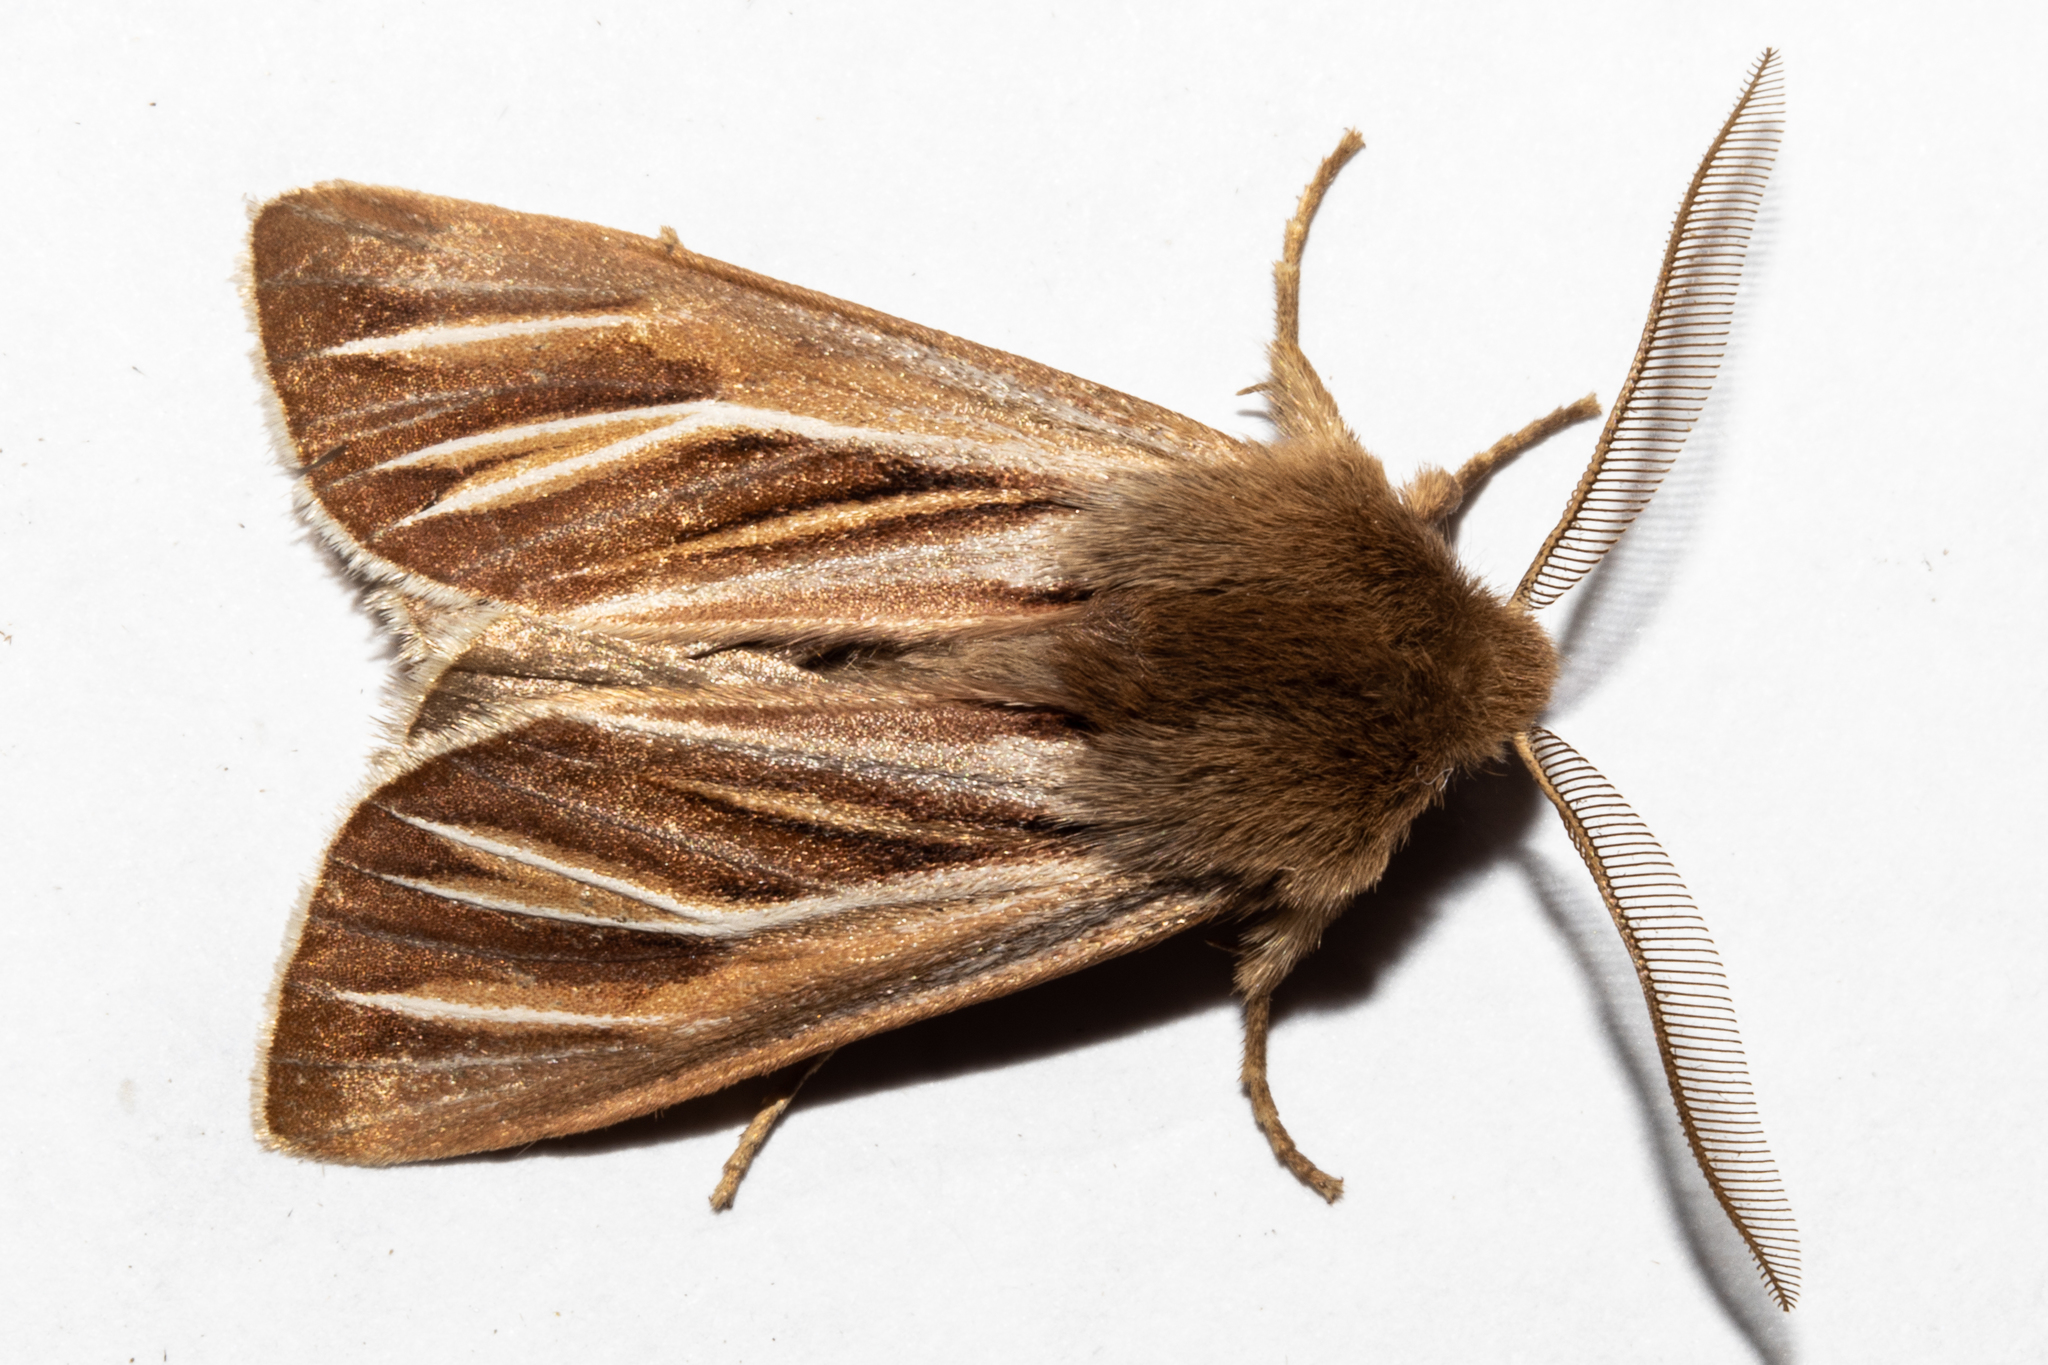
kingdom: Animalia
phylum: Arthropoda
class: Insecta
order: Lepidoptera
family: Noctuidae
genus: Ichneutica
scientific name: Ichneutica caraunias
